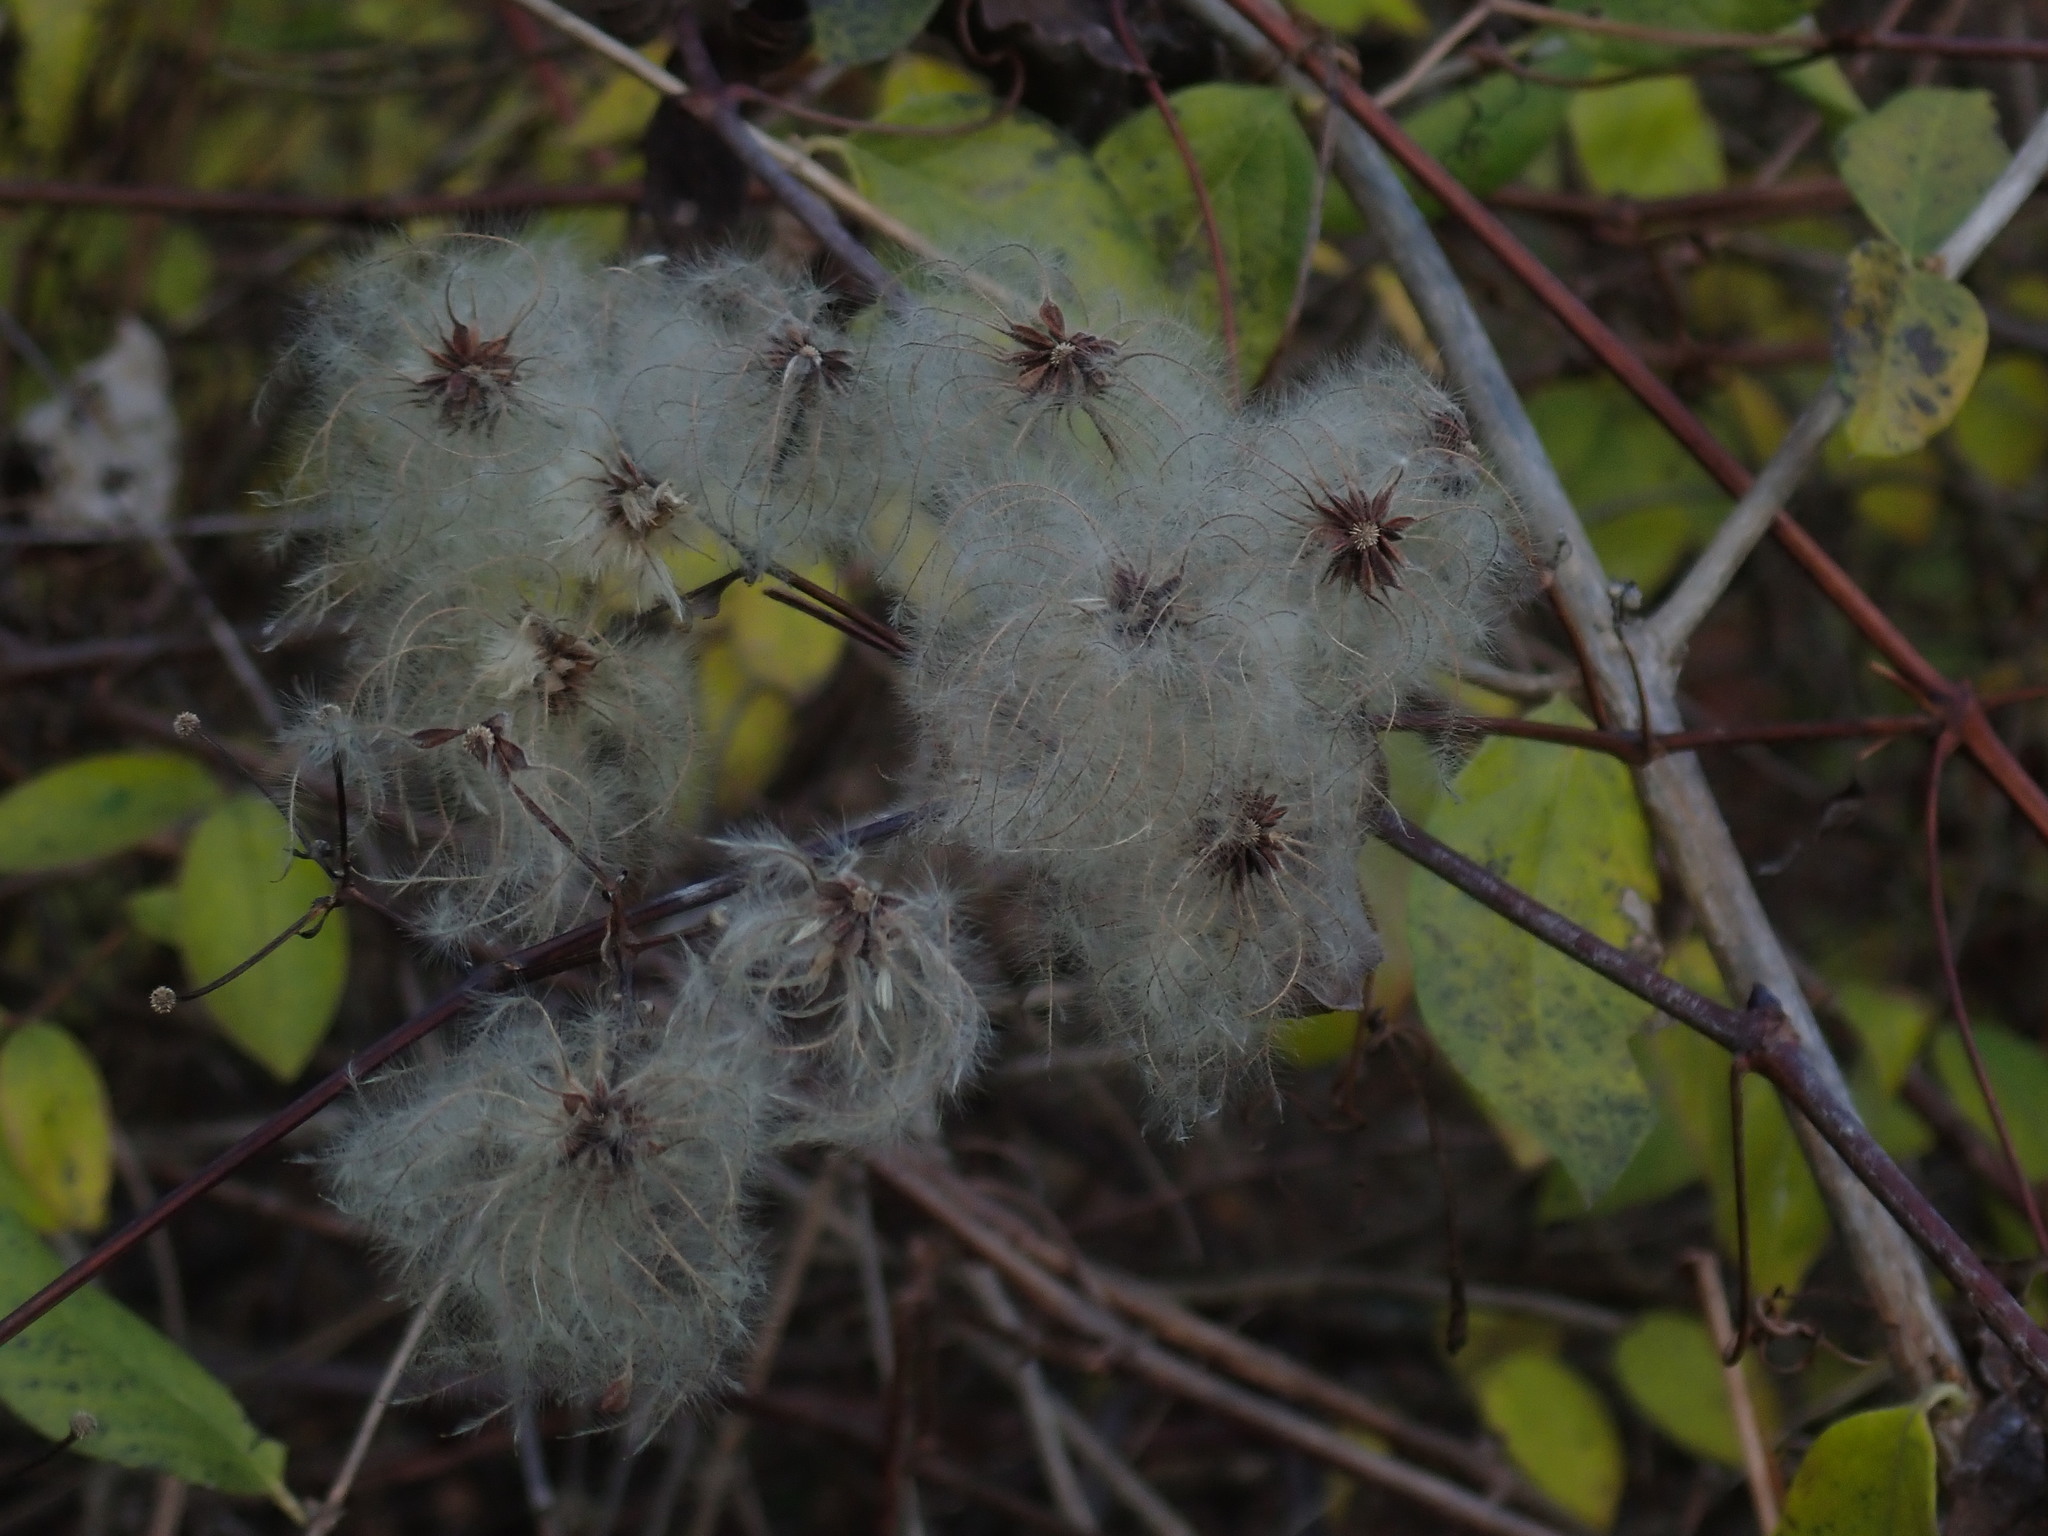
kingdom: Plantae
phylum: Tracheophyta
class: Magnoliopsida
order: Ranunculales
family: Ranunculaceae
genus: Clematis
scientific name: Clematis virginiana
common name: Virgin's-bower
